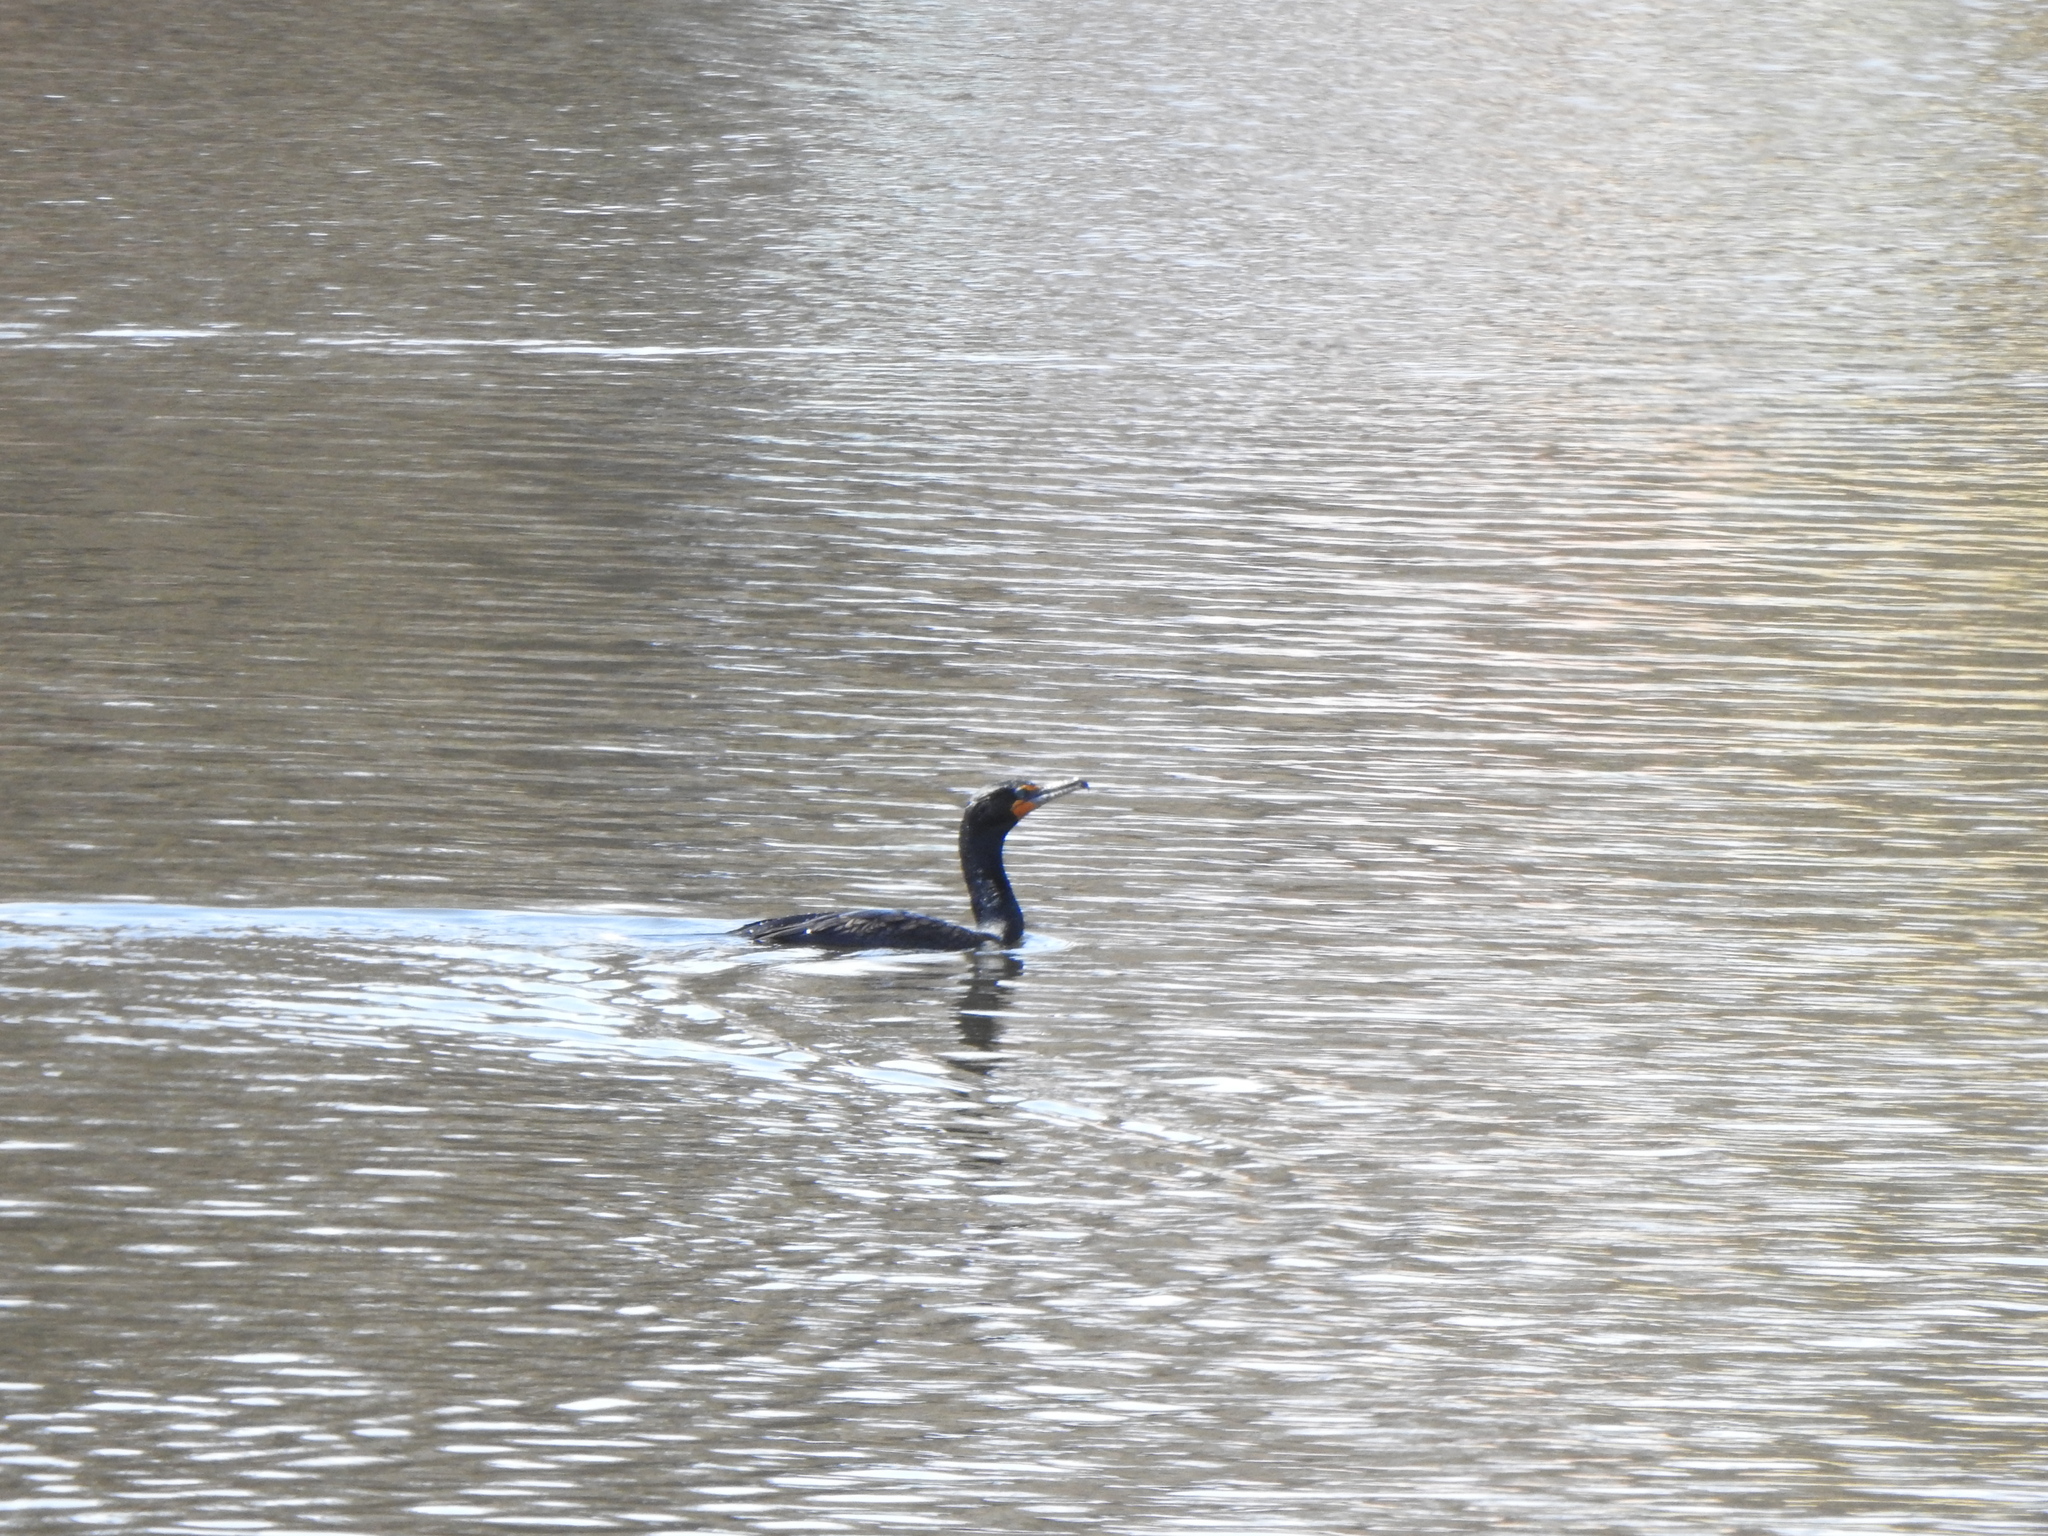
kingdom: Animalia
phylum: Chordata
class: Aves
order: Suliformes
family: Phalacrocoracidae
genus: Phalacrocorax
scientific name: Phalacrocorax auritus
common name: Double-crested cormorant
